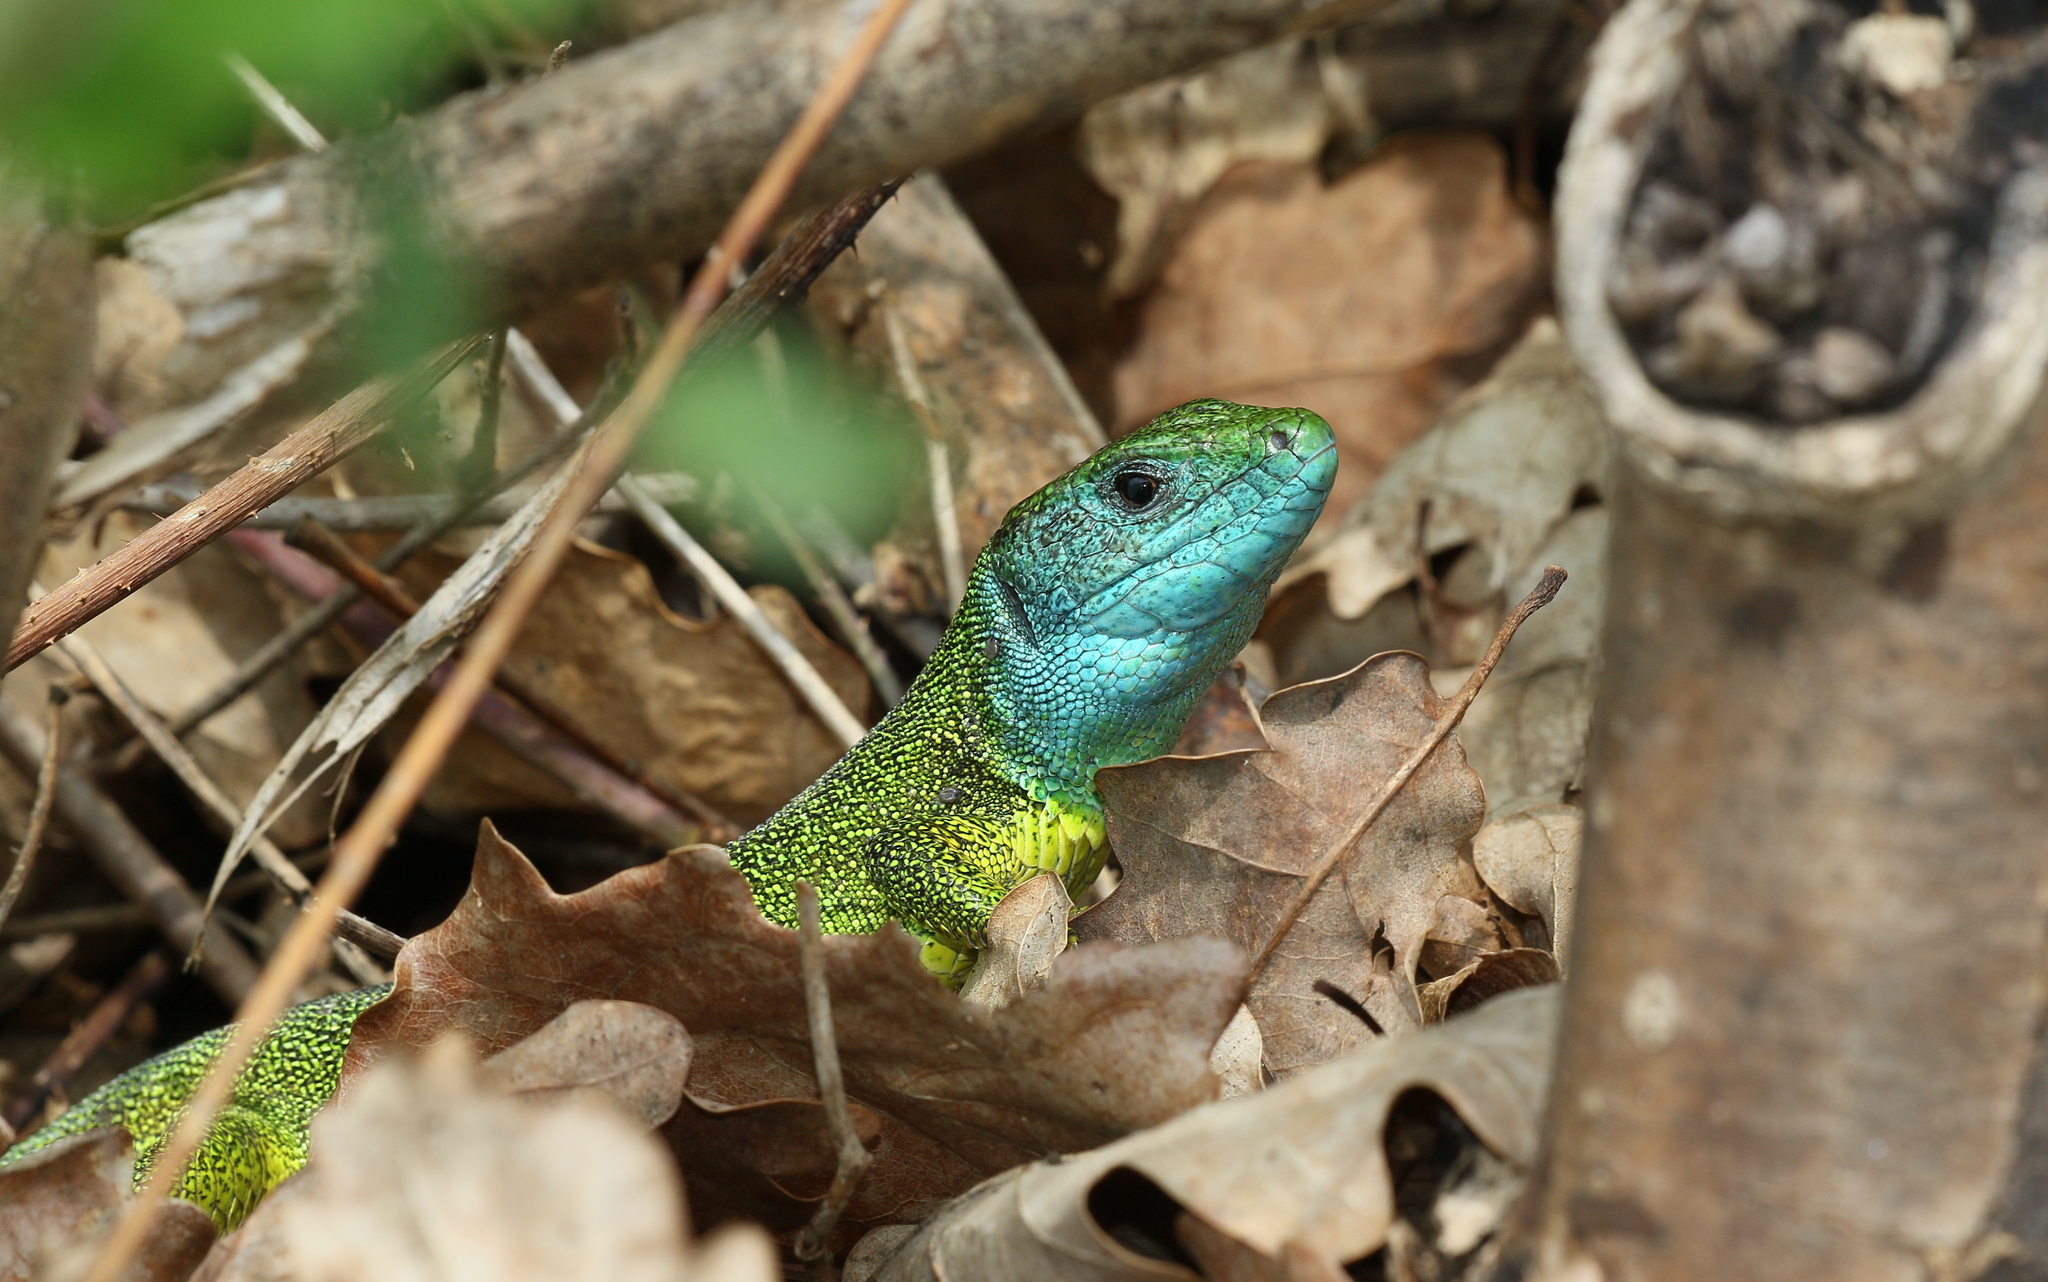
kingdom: Animalia
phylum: Chordata
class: Squamata
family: Lacertidae
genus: Lacerta
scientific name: Lacerta viridis
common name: European green lizard
